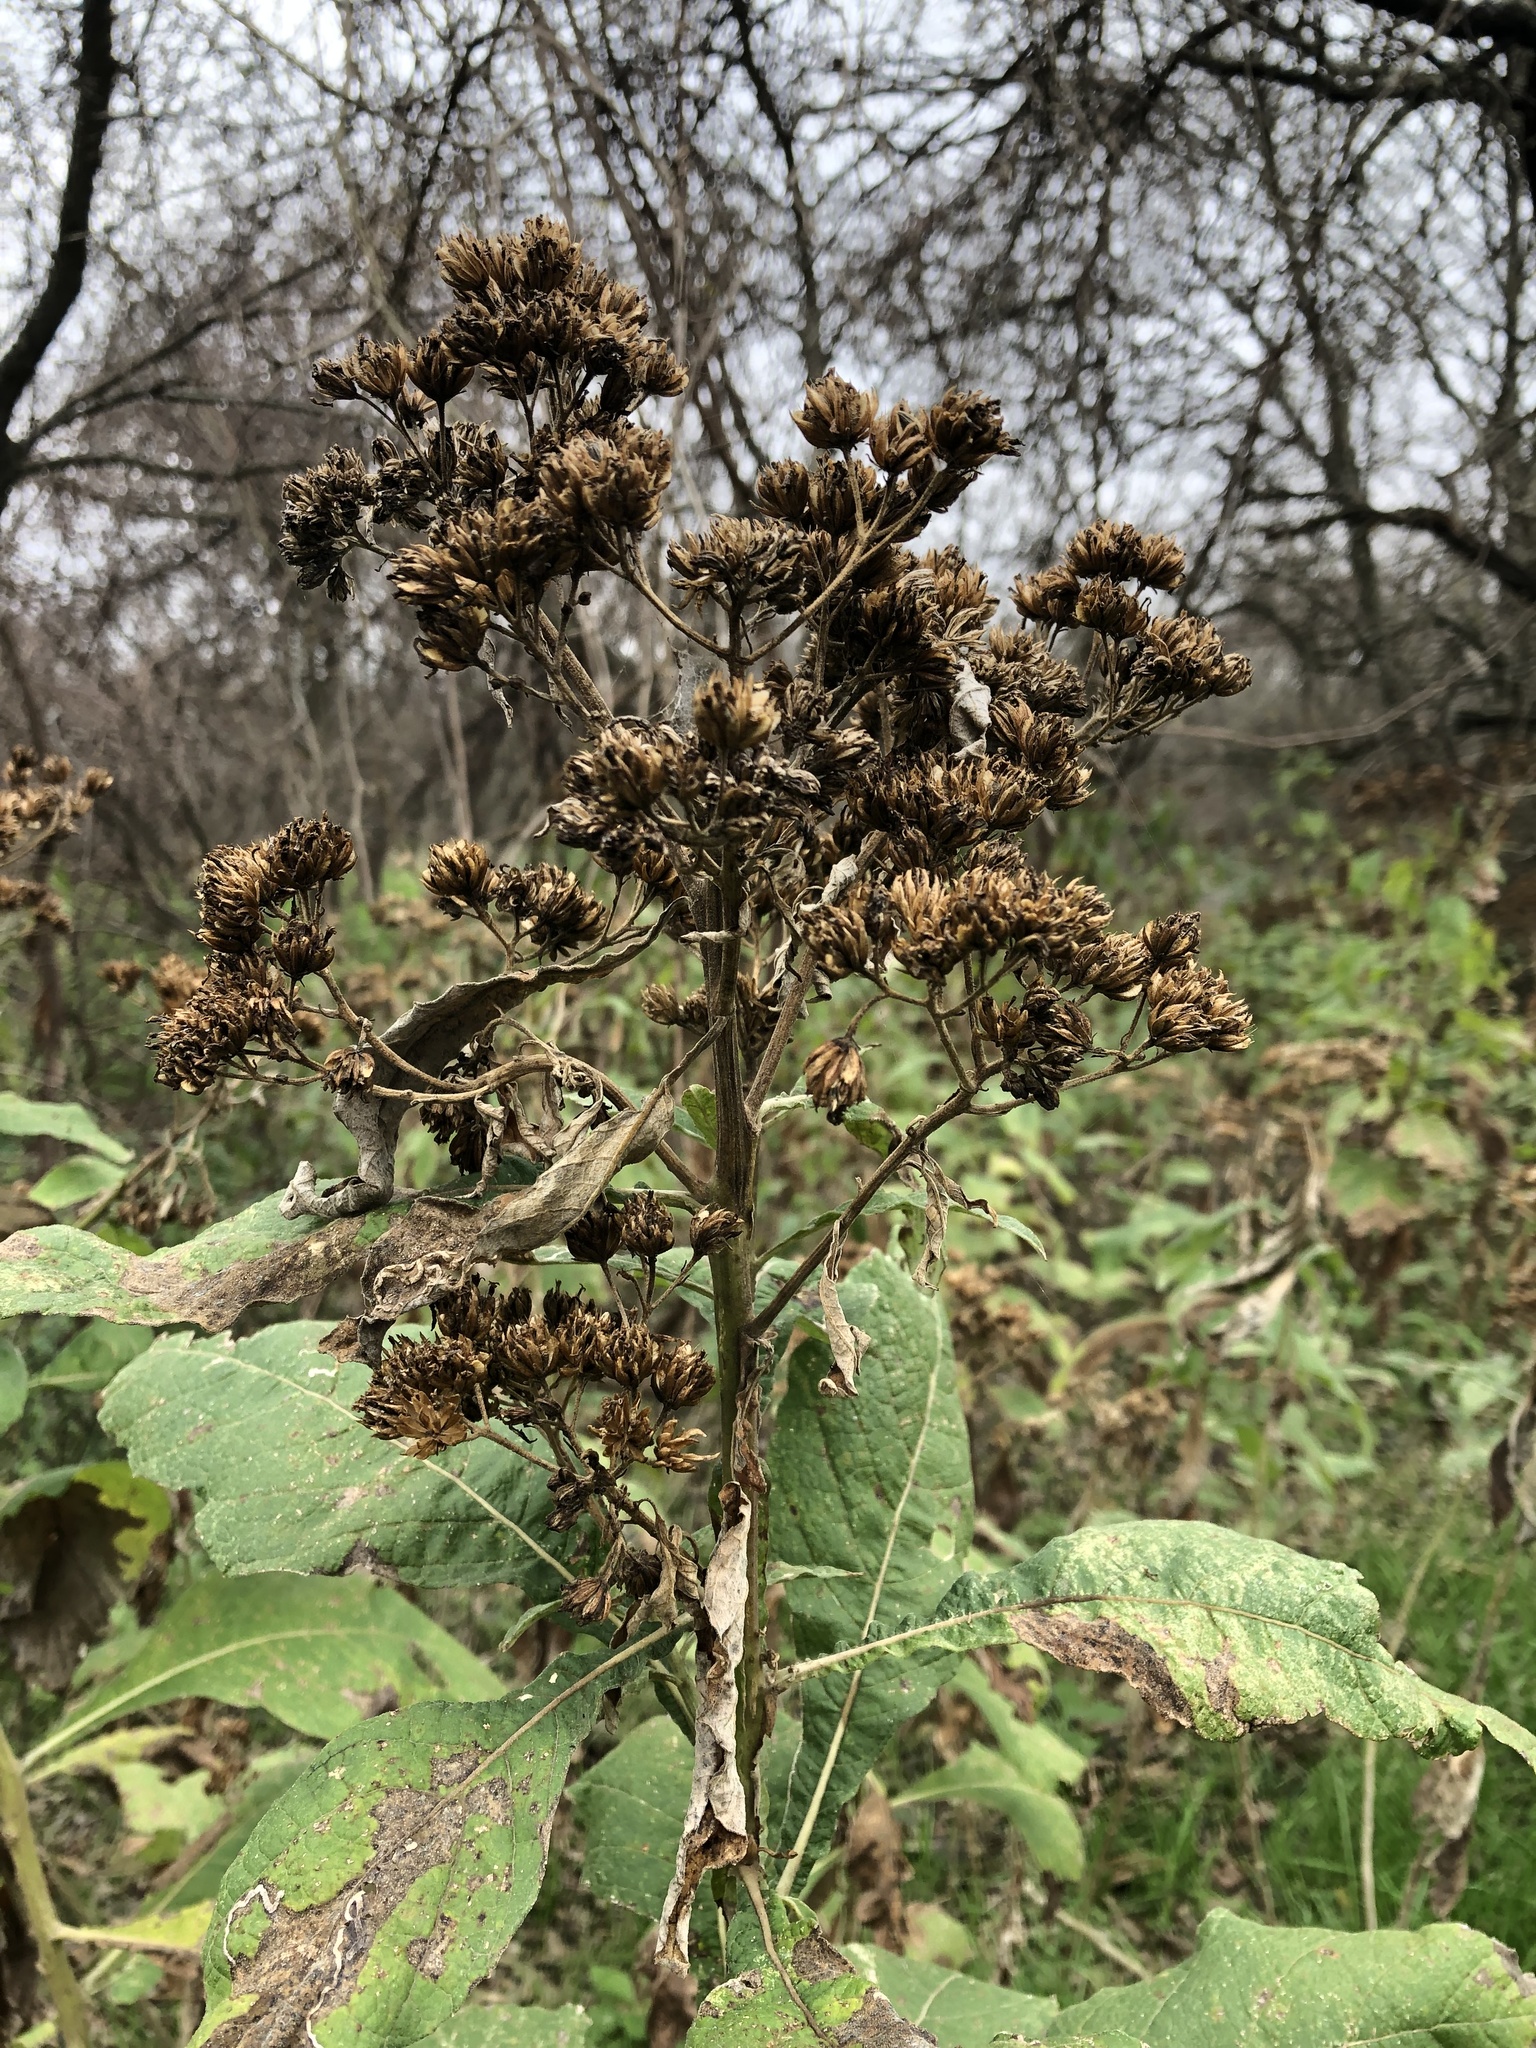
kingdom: Plantae
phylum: Tracheophyta
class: Magnoliopsida
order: Asterales
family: Asteraceae
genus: Verbesina
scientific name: Verbesina virginica
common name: Frostweed
